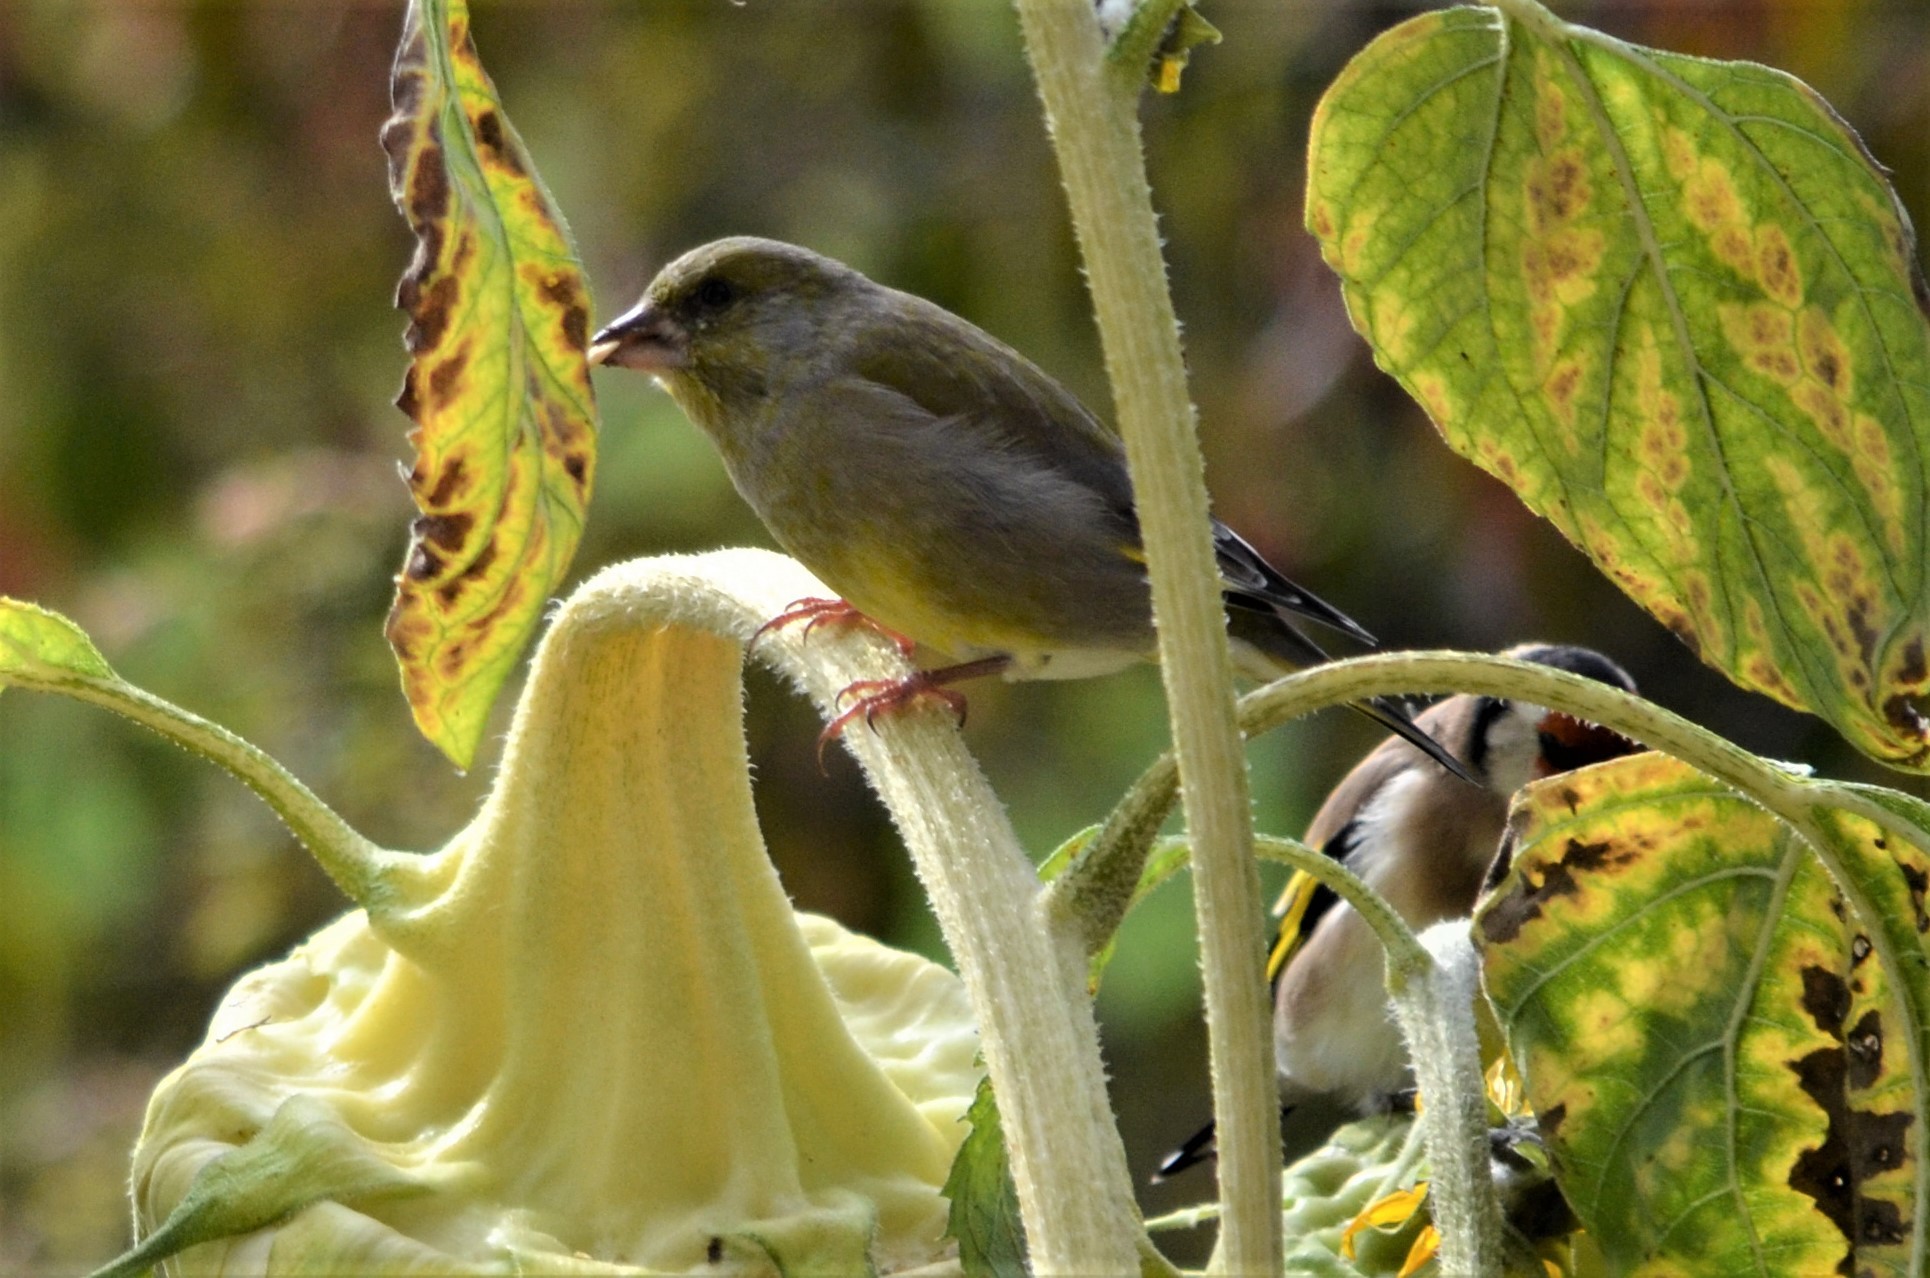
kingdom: Plantae
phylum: Tracheophyta
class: Liliopsida
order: Poales
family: Poaceae
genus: Chloris
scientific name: Chloris chloris
